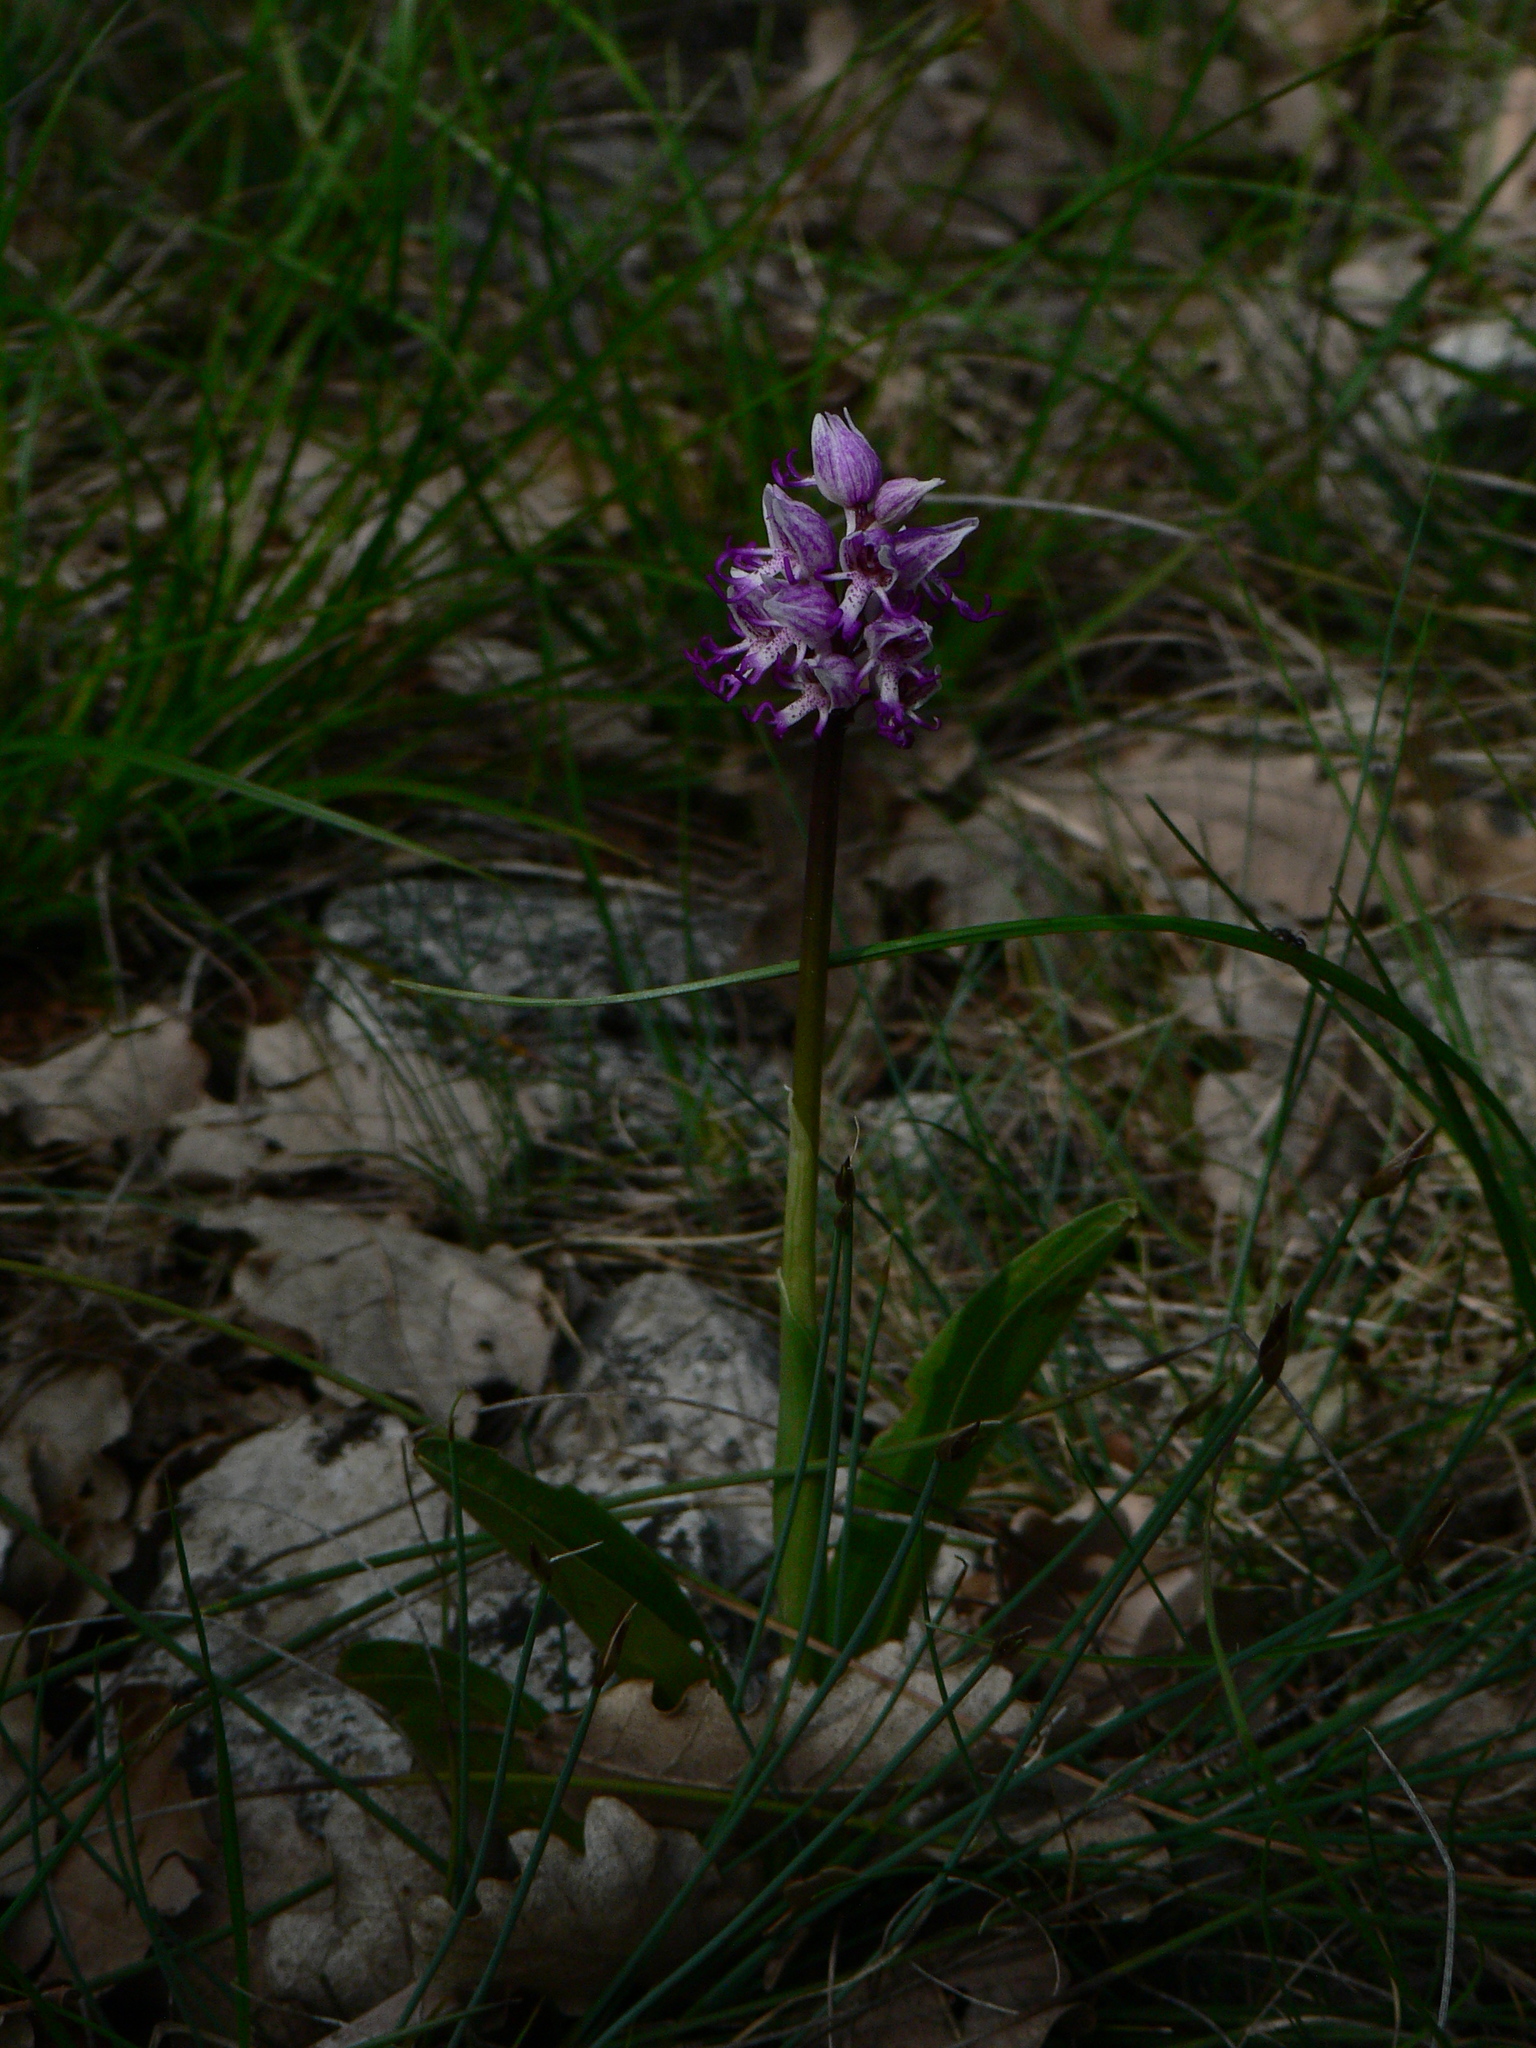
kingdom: Plantae
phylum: Tracheophyta
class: Liliopsida
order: Asparagales
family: Orchidaceae
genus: Orchis
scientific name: Orchis simia
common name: Monkey orchid
